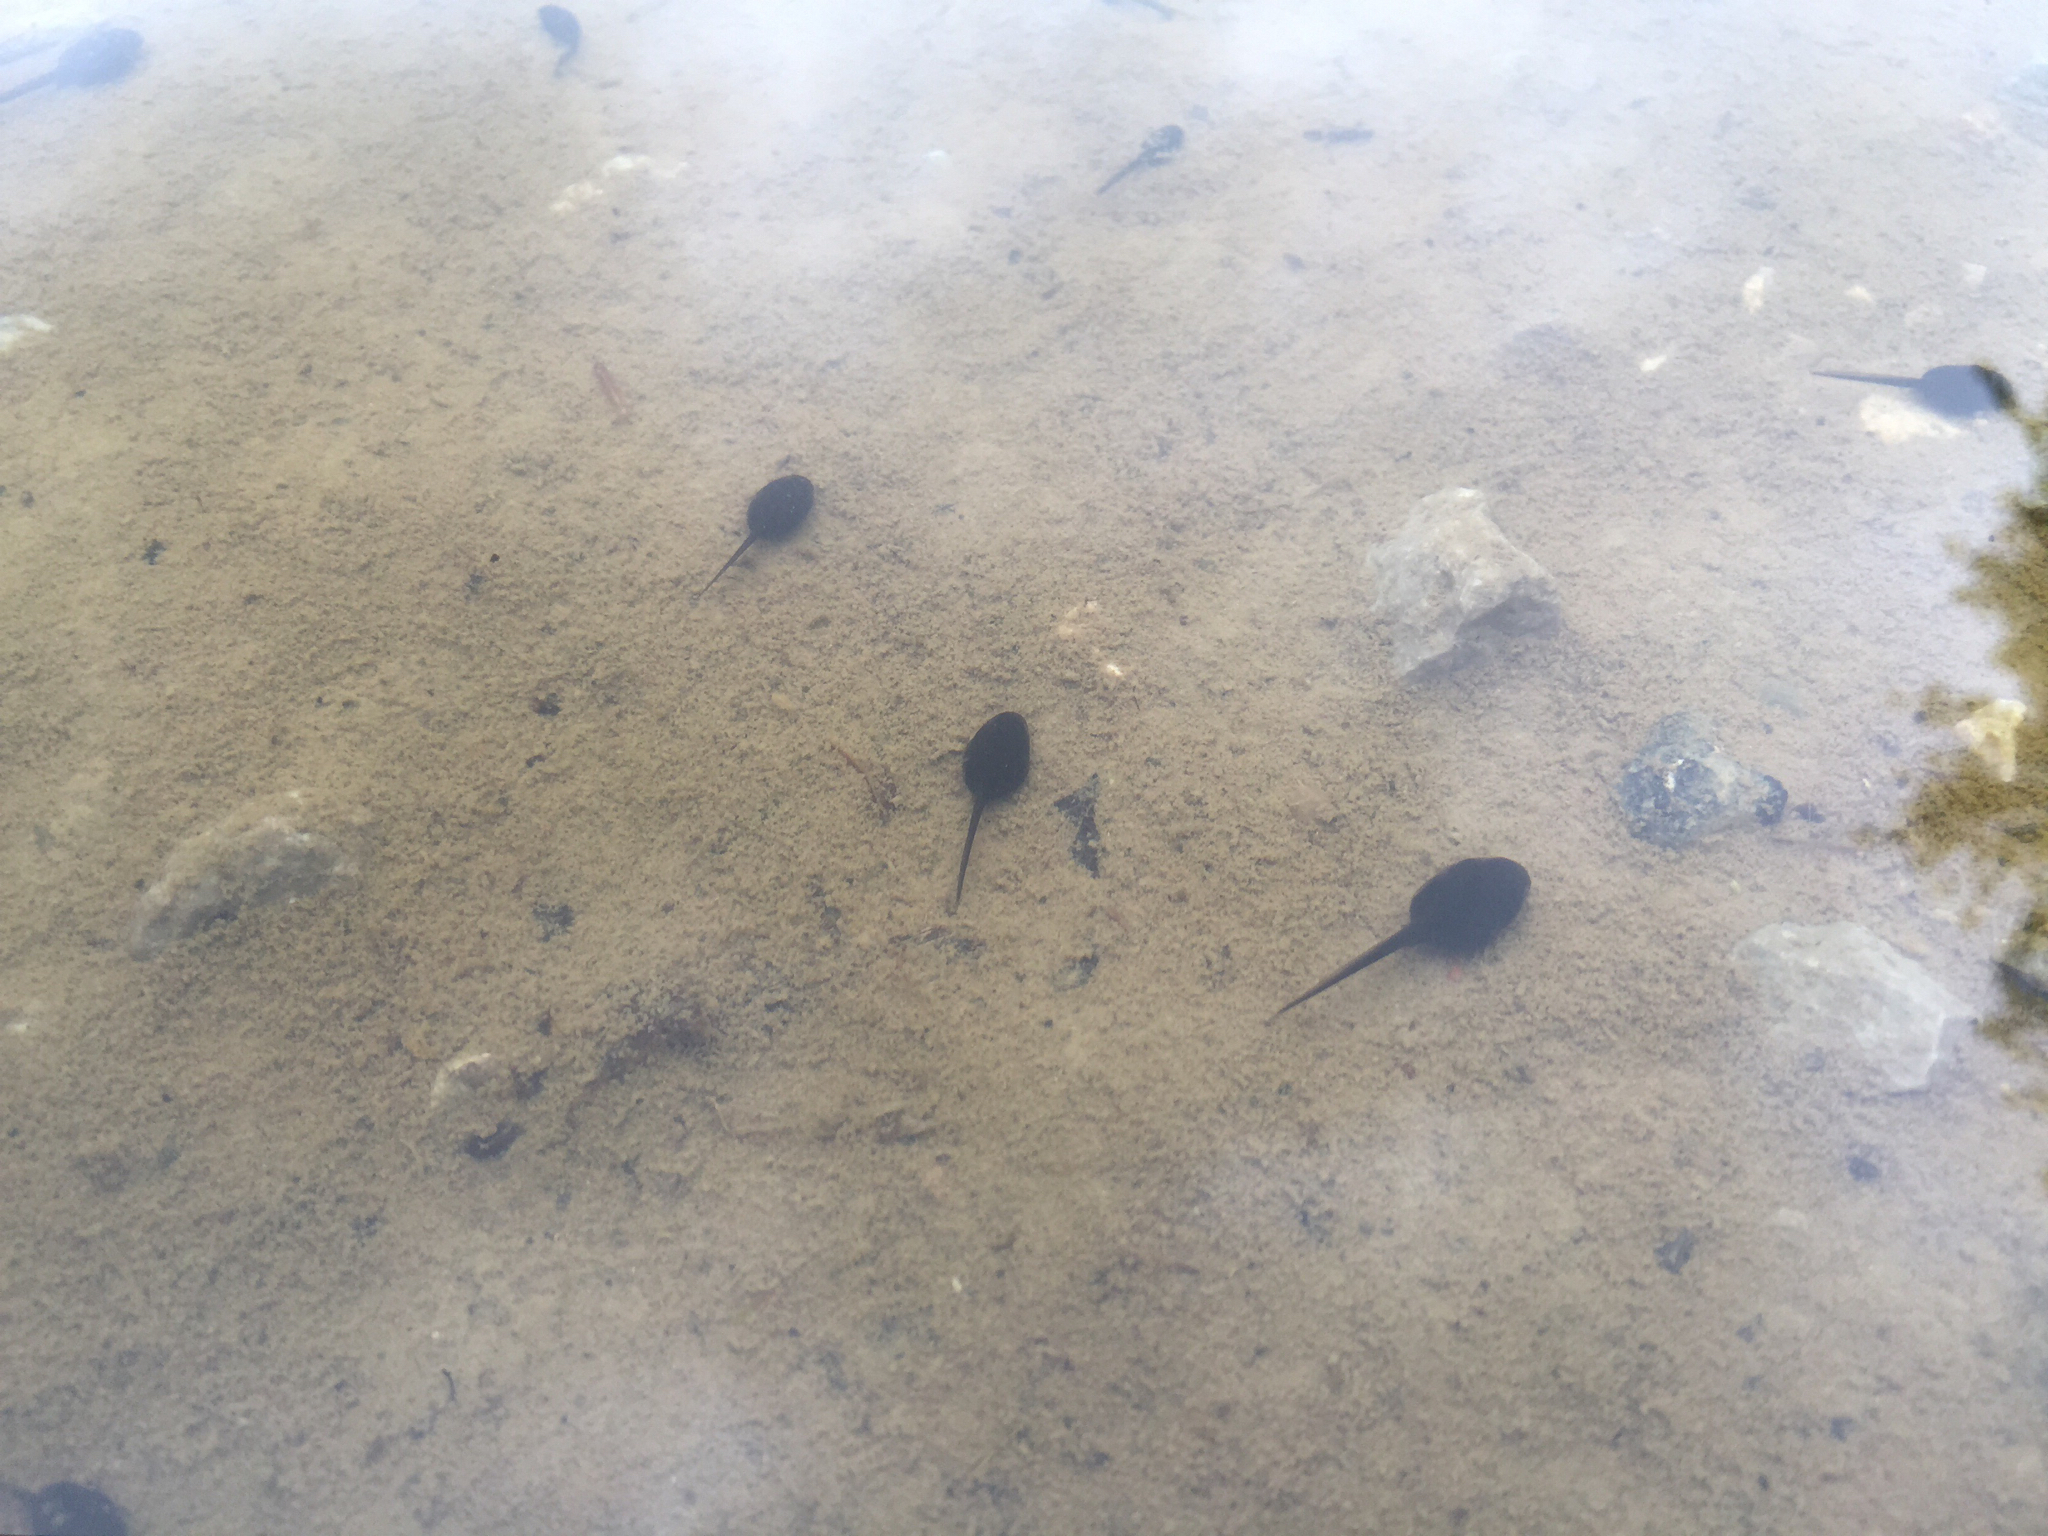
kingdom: Animalia
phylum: Chordata
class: Amphibia
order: Anura
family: Bufonidae
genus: Anaxyrus
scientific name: Anaxyrus americanus
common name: American toad
